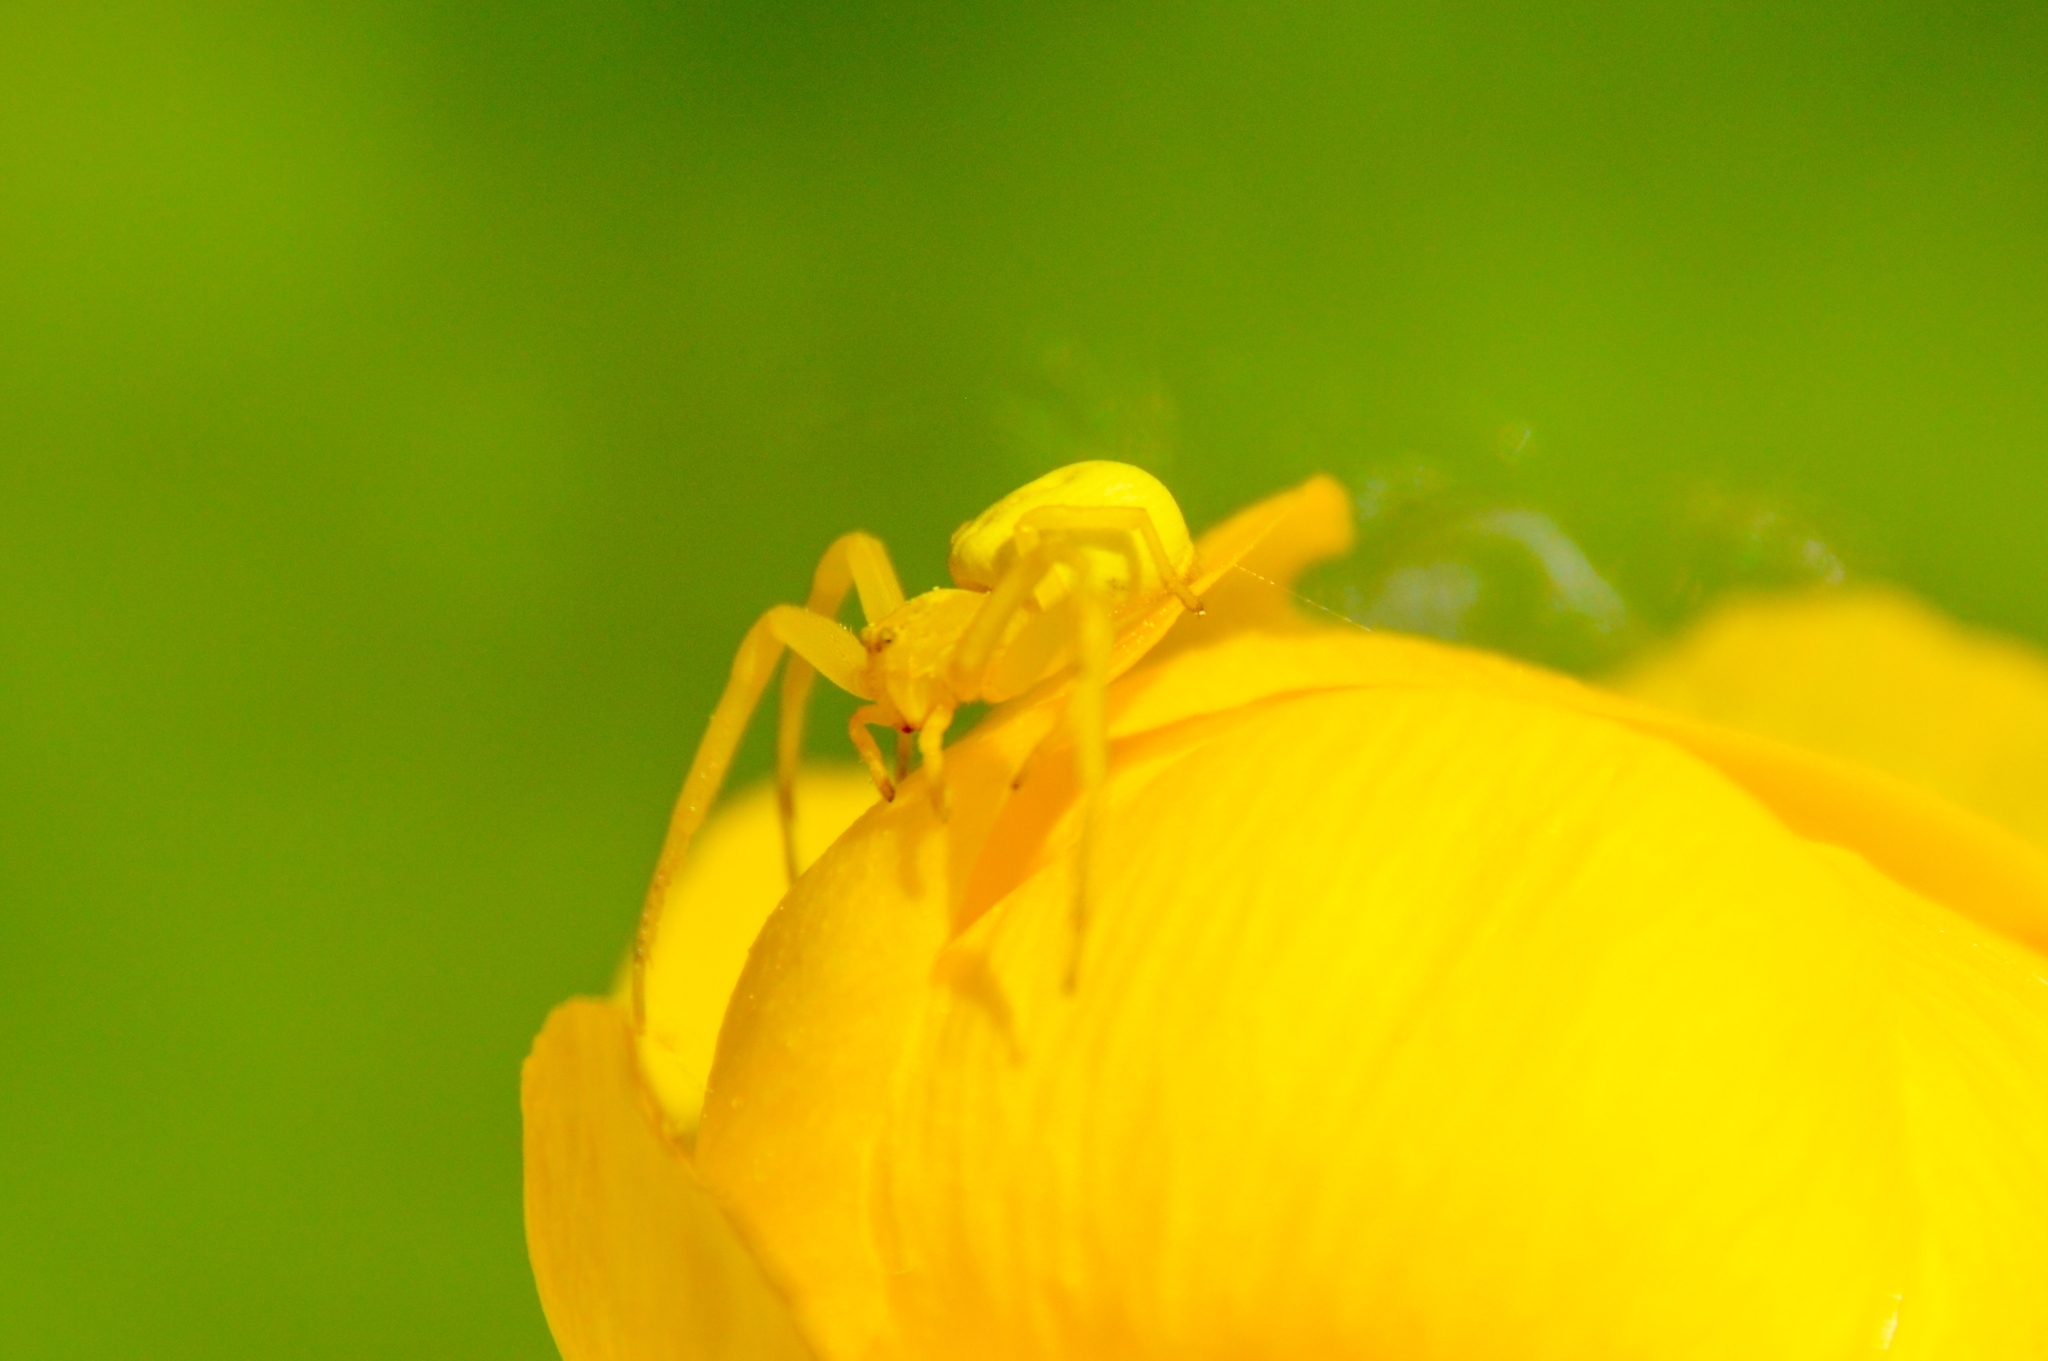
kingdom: Animalia
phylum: Arthropoda
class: Arachnida
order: Araneae
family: Thomisidae
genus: Misumena
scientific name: Misumena vatia
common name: Goldenrod crab spider
